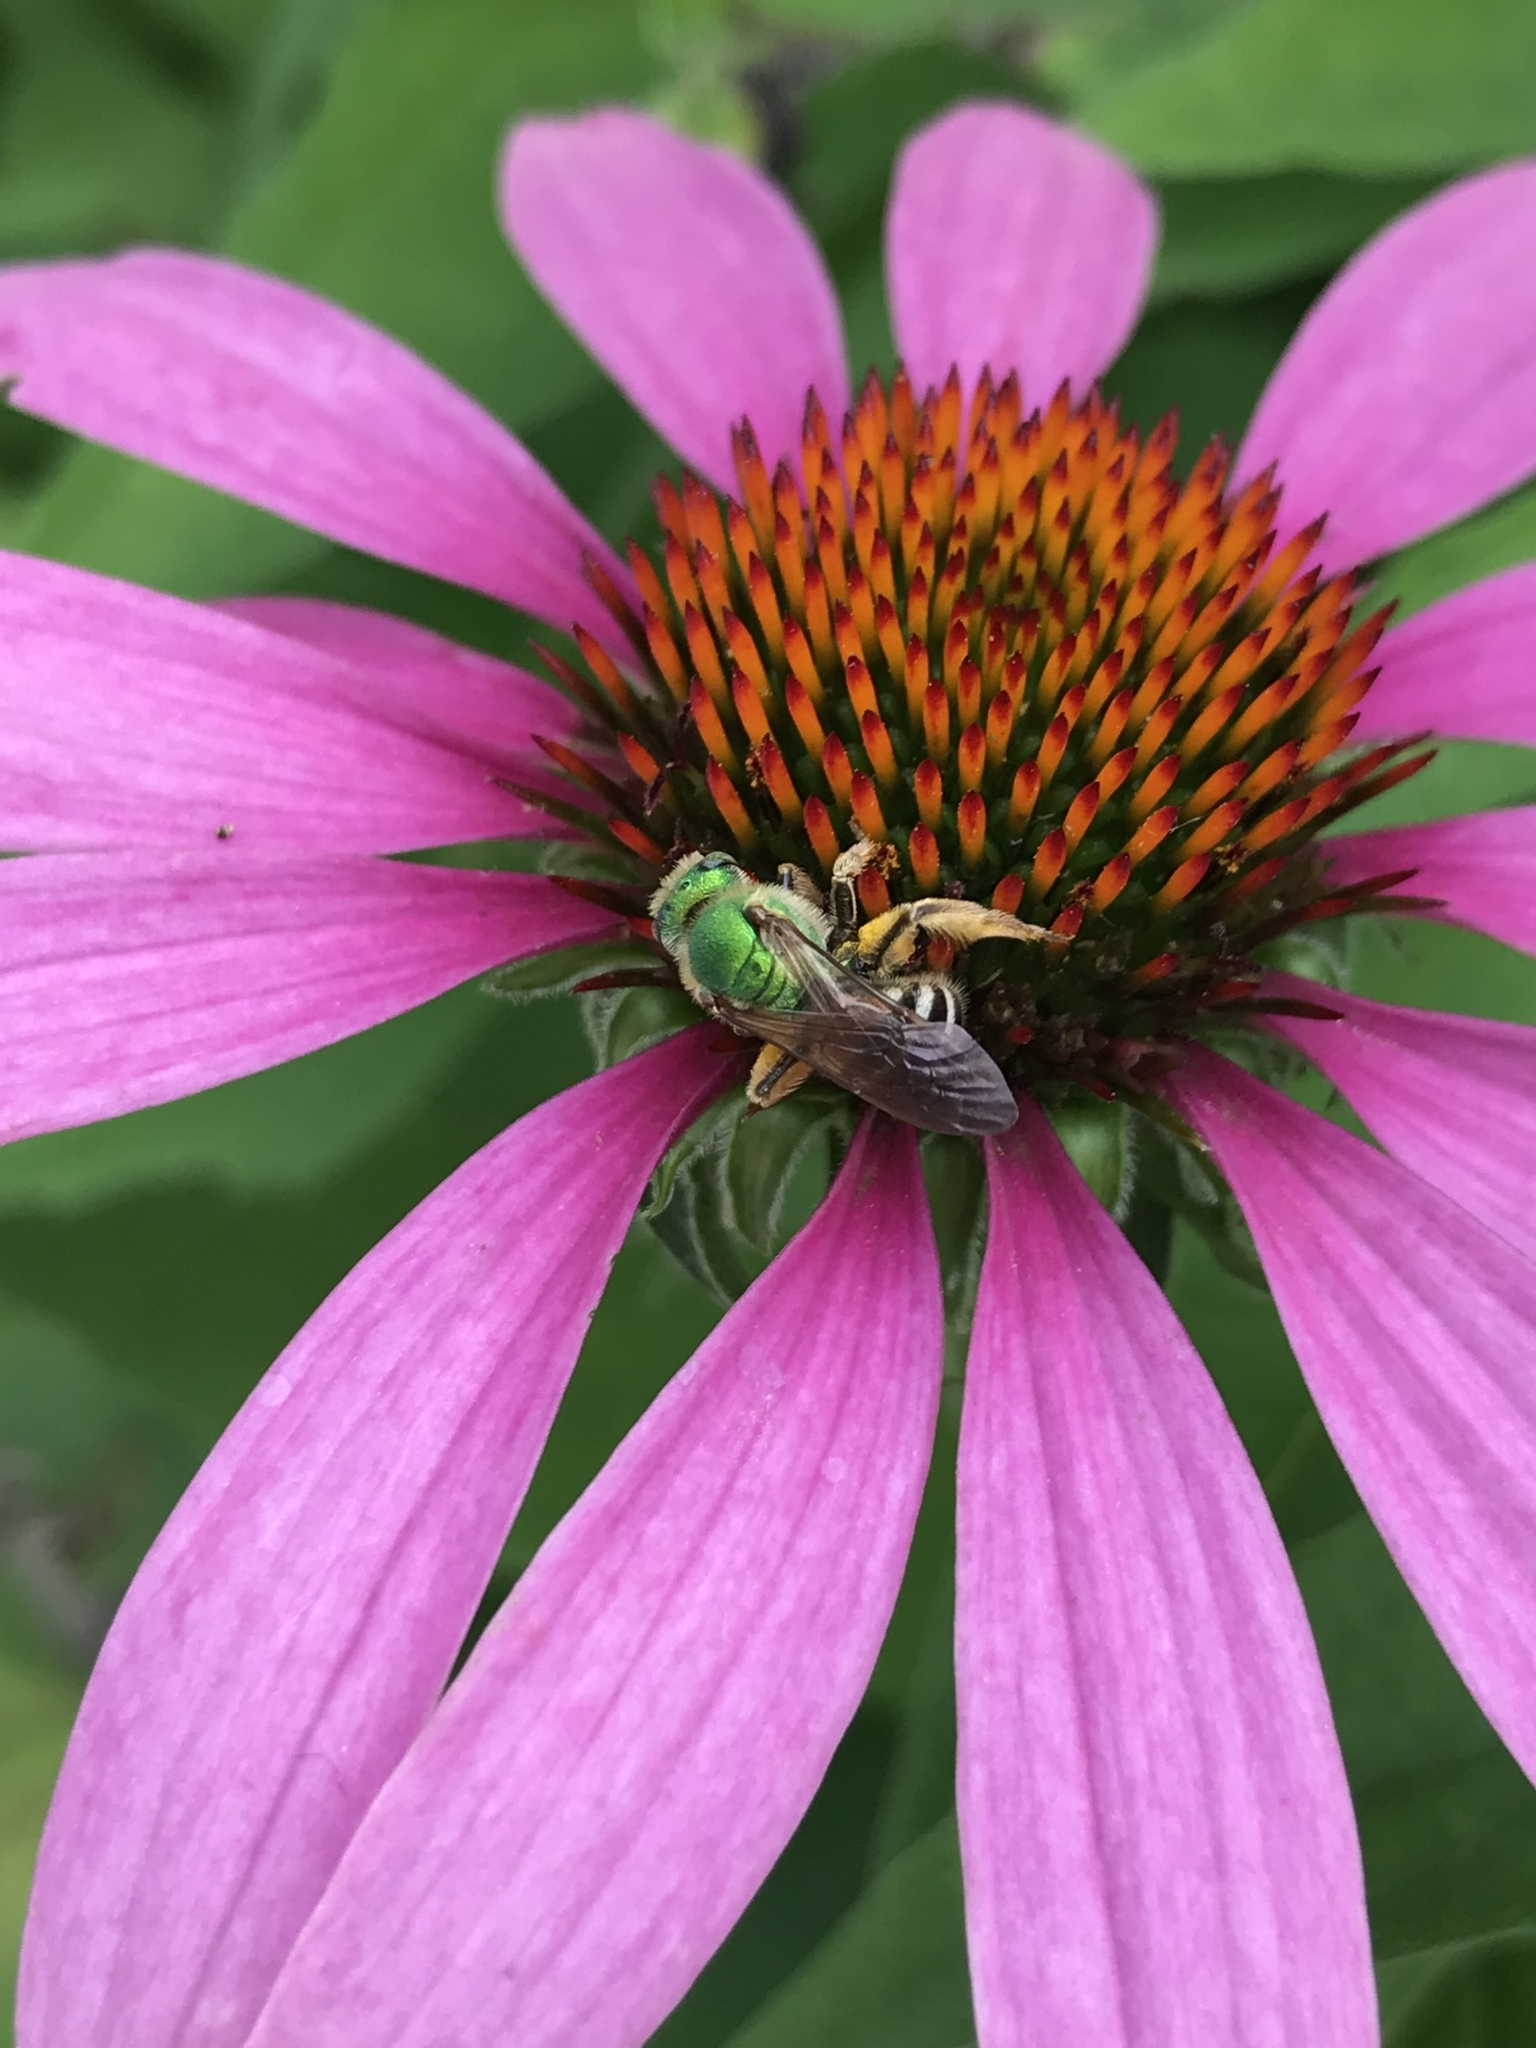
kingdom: Animalia
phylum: Arthropoda
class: Insecta
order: Hymenoptera
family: Halictidae
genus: Agapostemon
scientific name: Agapostemon virescens
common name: Bicolored striped sweat bee
